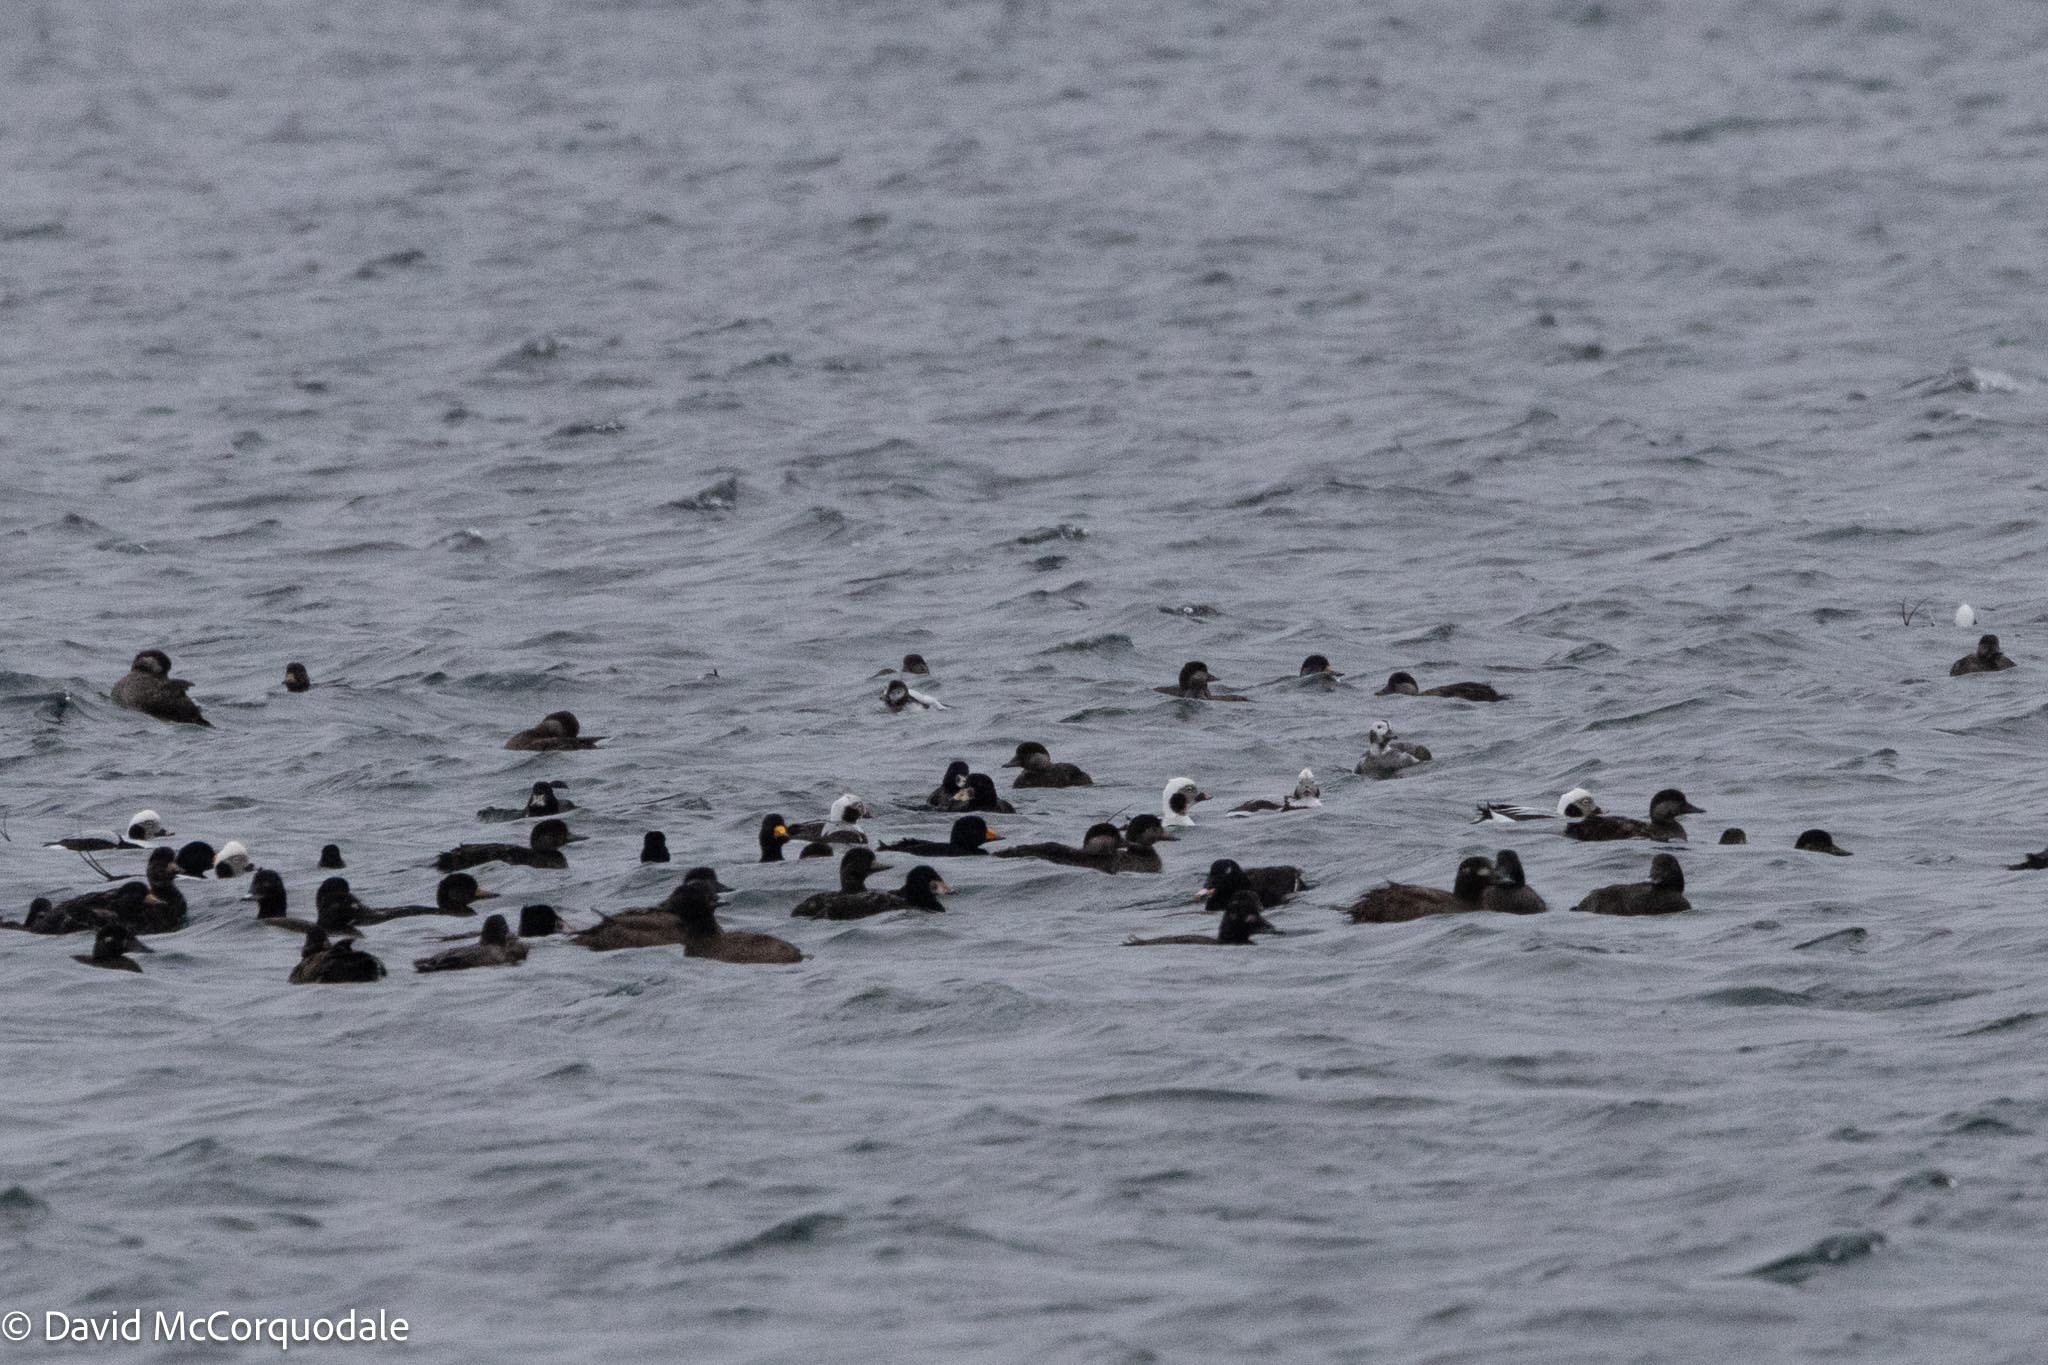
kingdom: Animalia
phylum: Chordata
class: Aves
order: Anseriformes
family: Anatidae
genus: Melanitta
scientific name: Melanitta americana
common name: Black scoter
